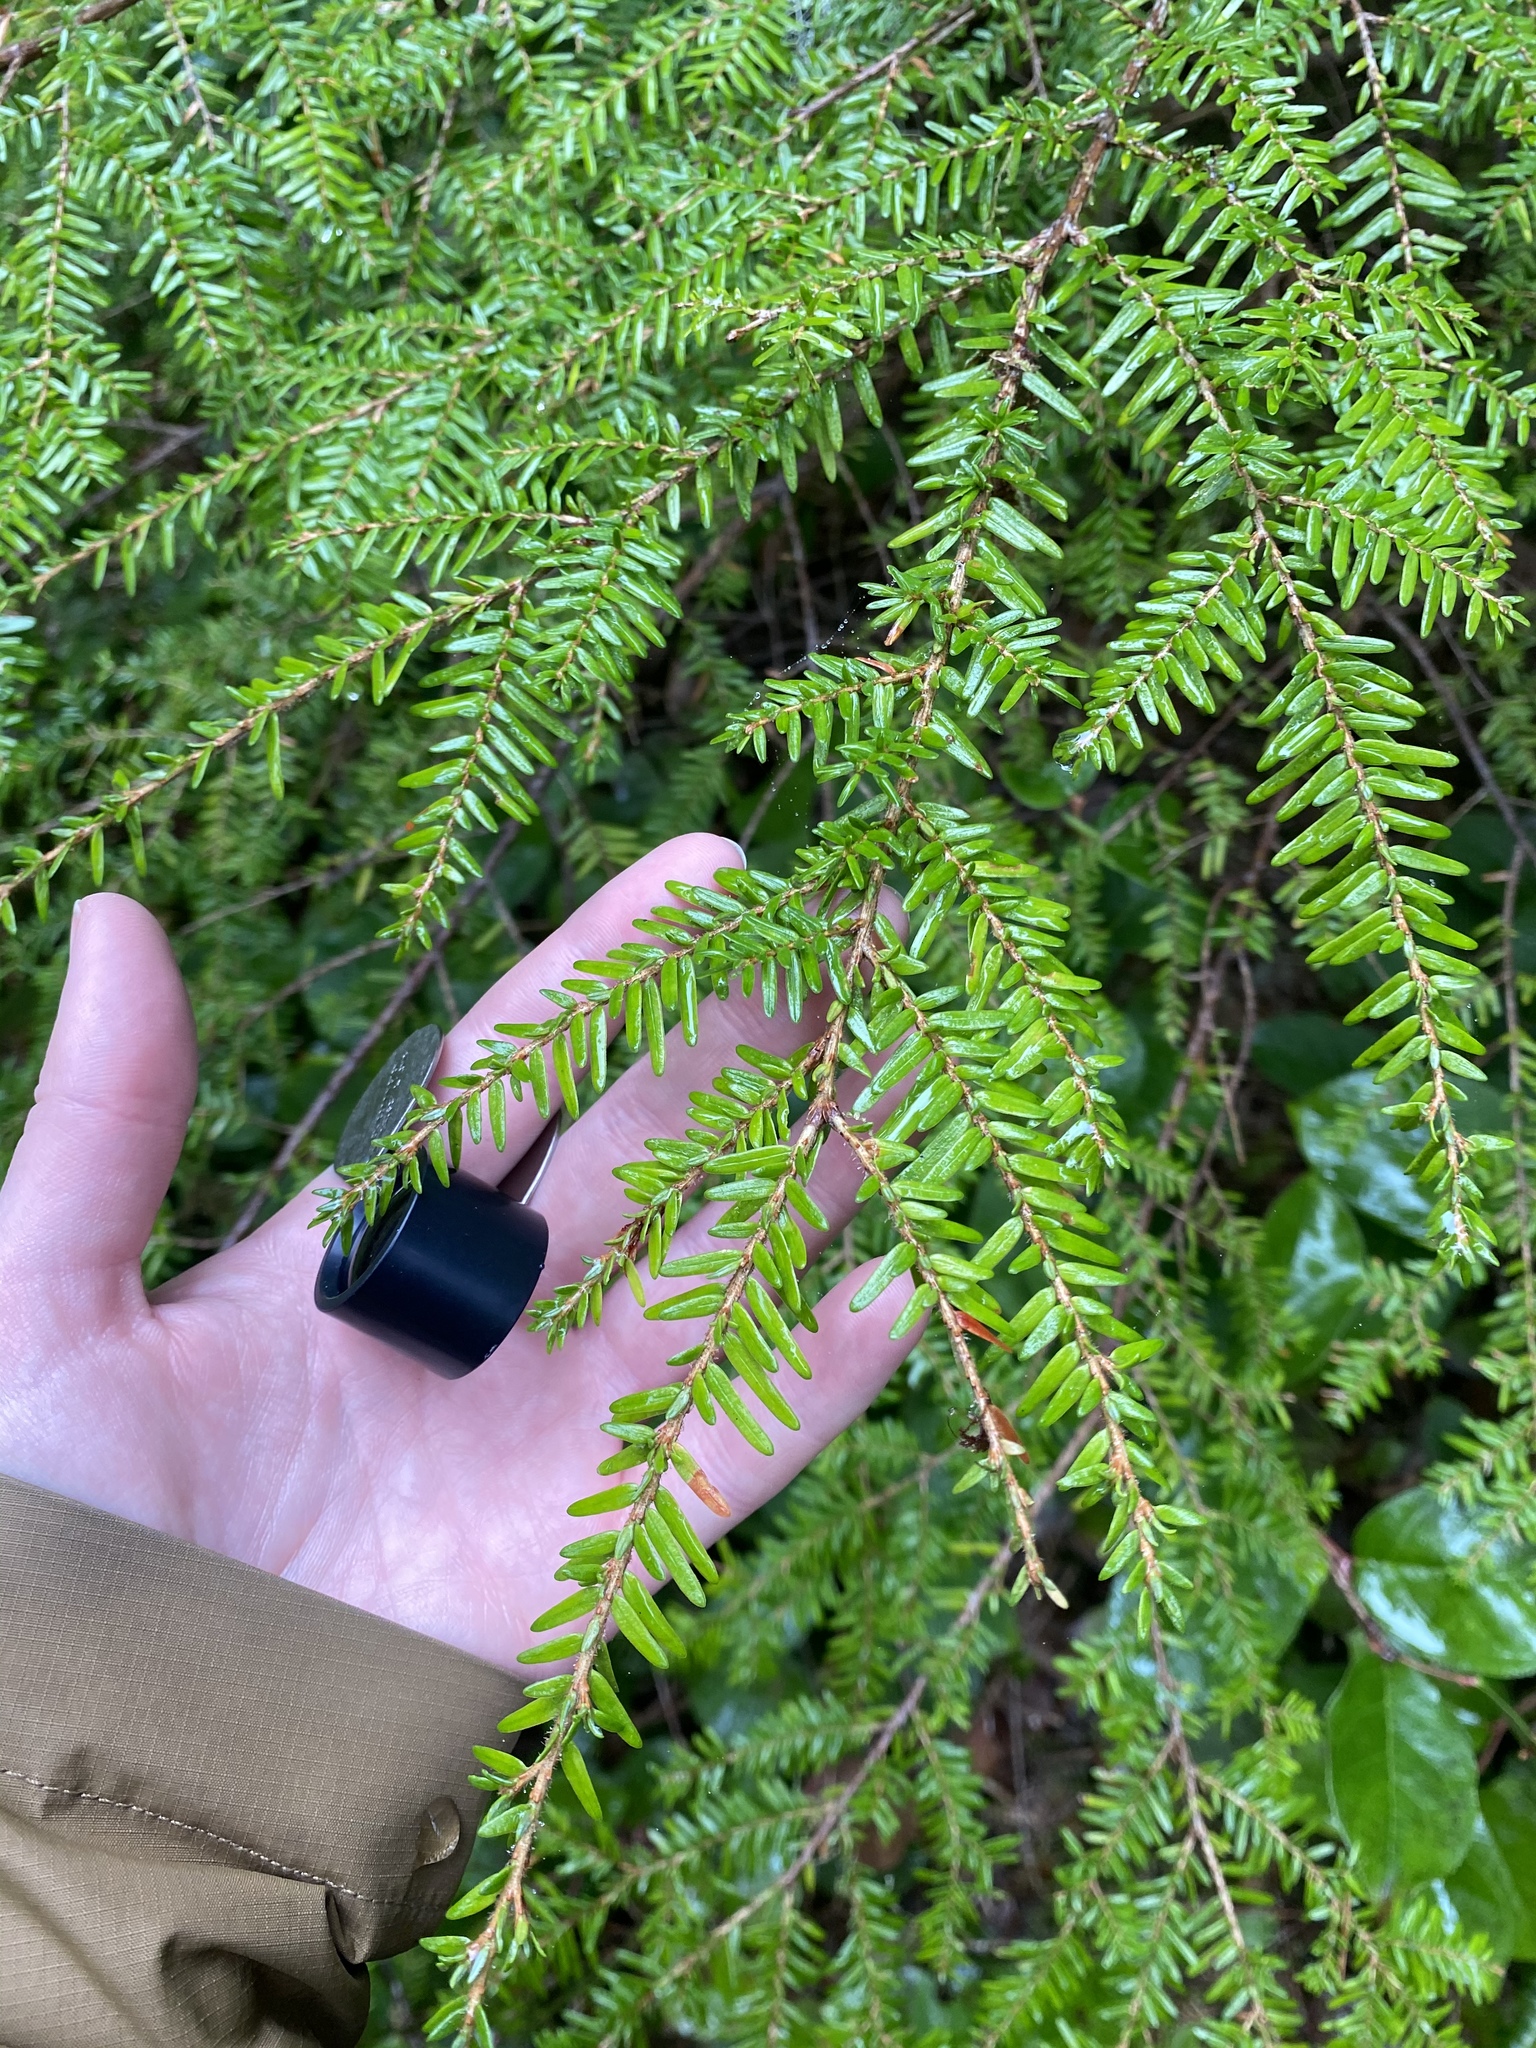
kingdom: Plantae
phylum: Tracheophyta
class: Pinopsida
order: Pinales
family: Pinaceae
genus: Tsuga
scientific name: Tsuga heterophylla
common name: Western hemlock
